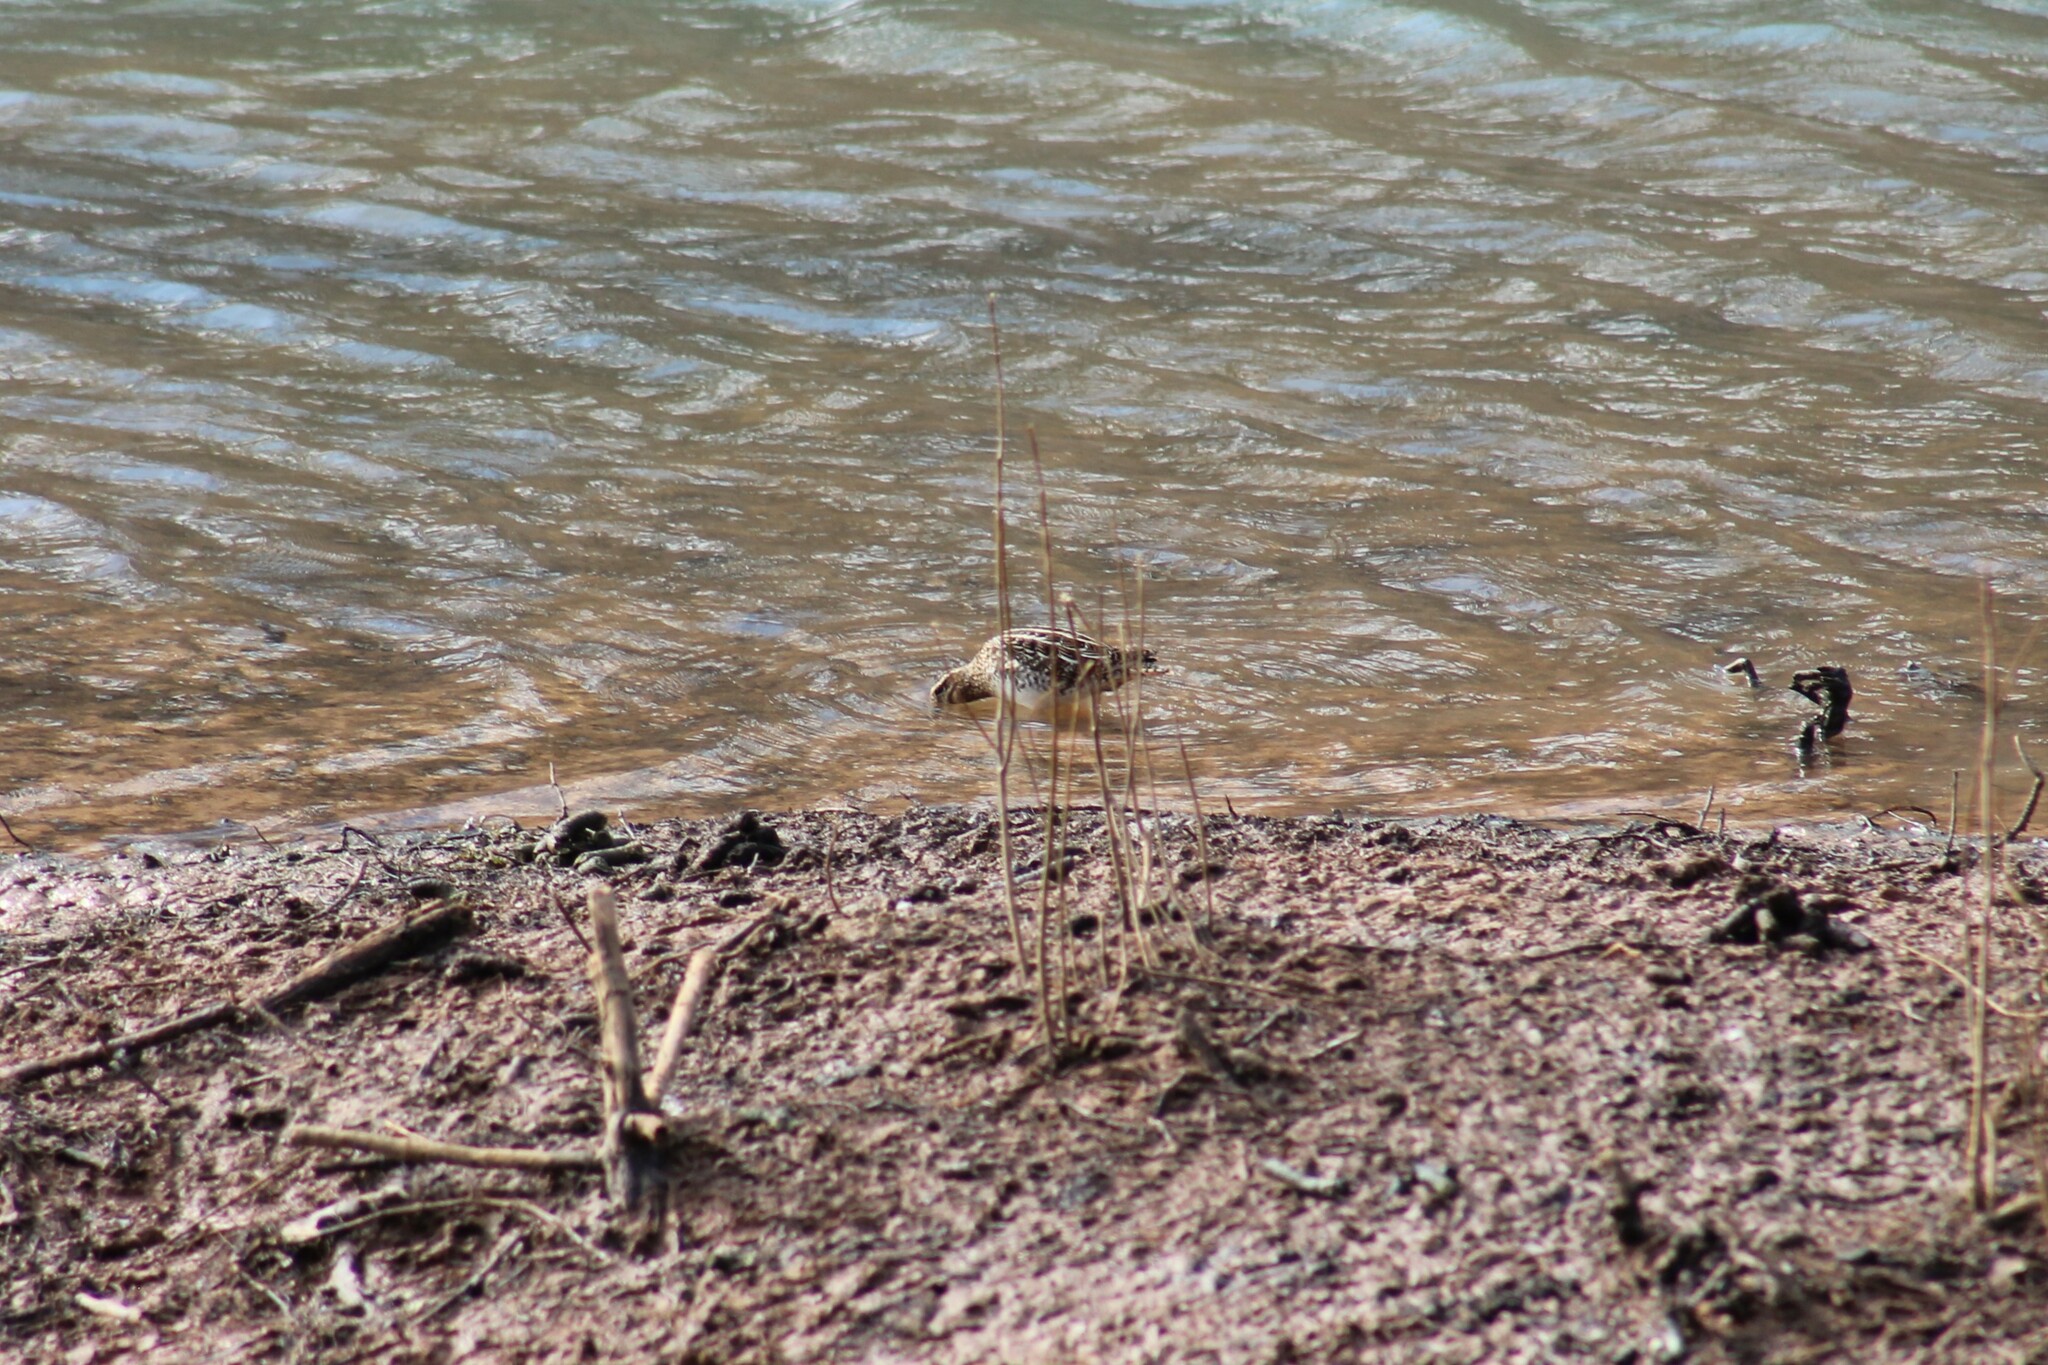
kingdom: Animalia
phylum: Chordata
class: Aves
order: Charadriiformes
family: Scolopacidae
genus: Gallinago
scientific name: Gallinago delicata
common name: Wilson's snipe
